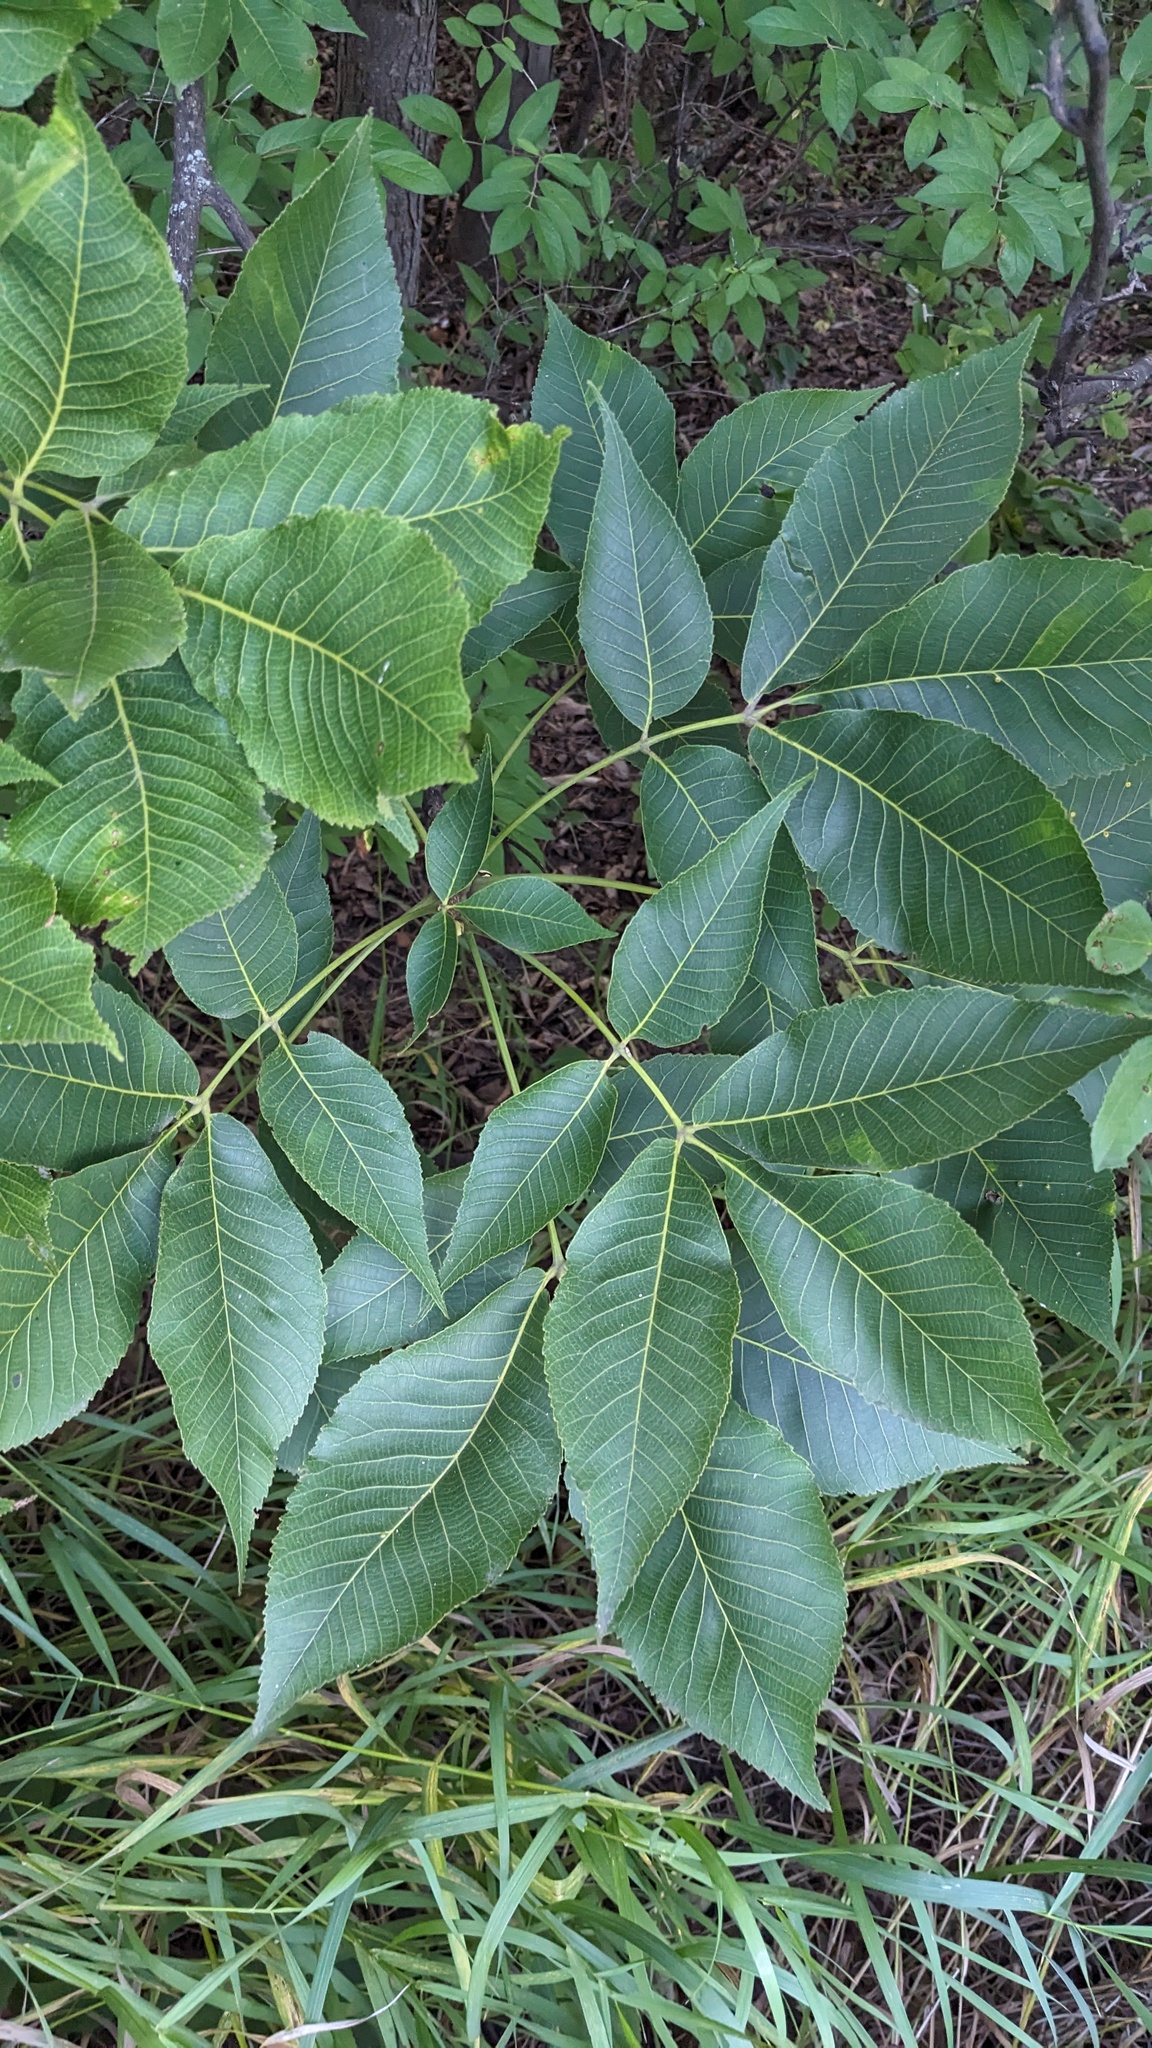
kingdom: Plantae
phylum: Tracheophyta
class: Magnoliopsida
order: Fagales
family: Juglandaceae
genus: Carya
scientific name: Carya ovata
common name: Shagbark hickory
